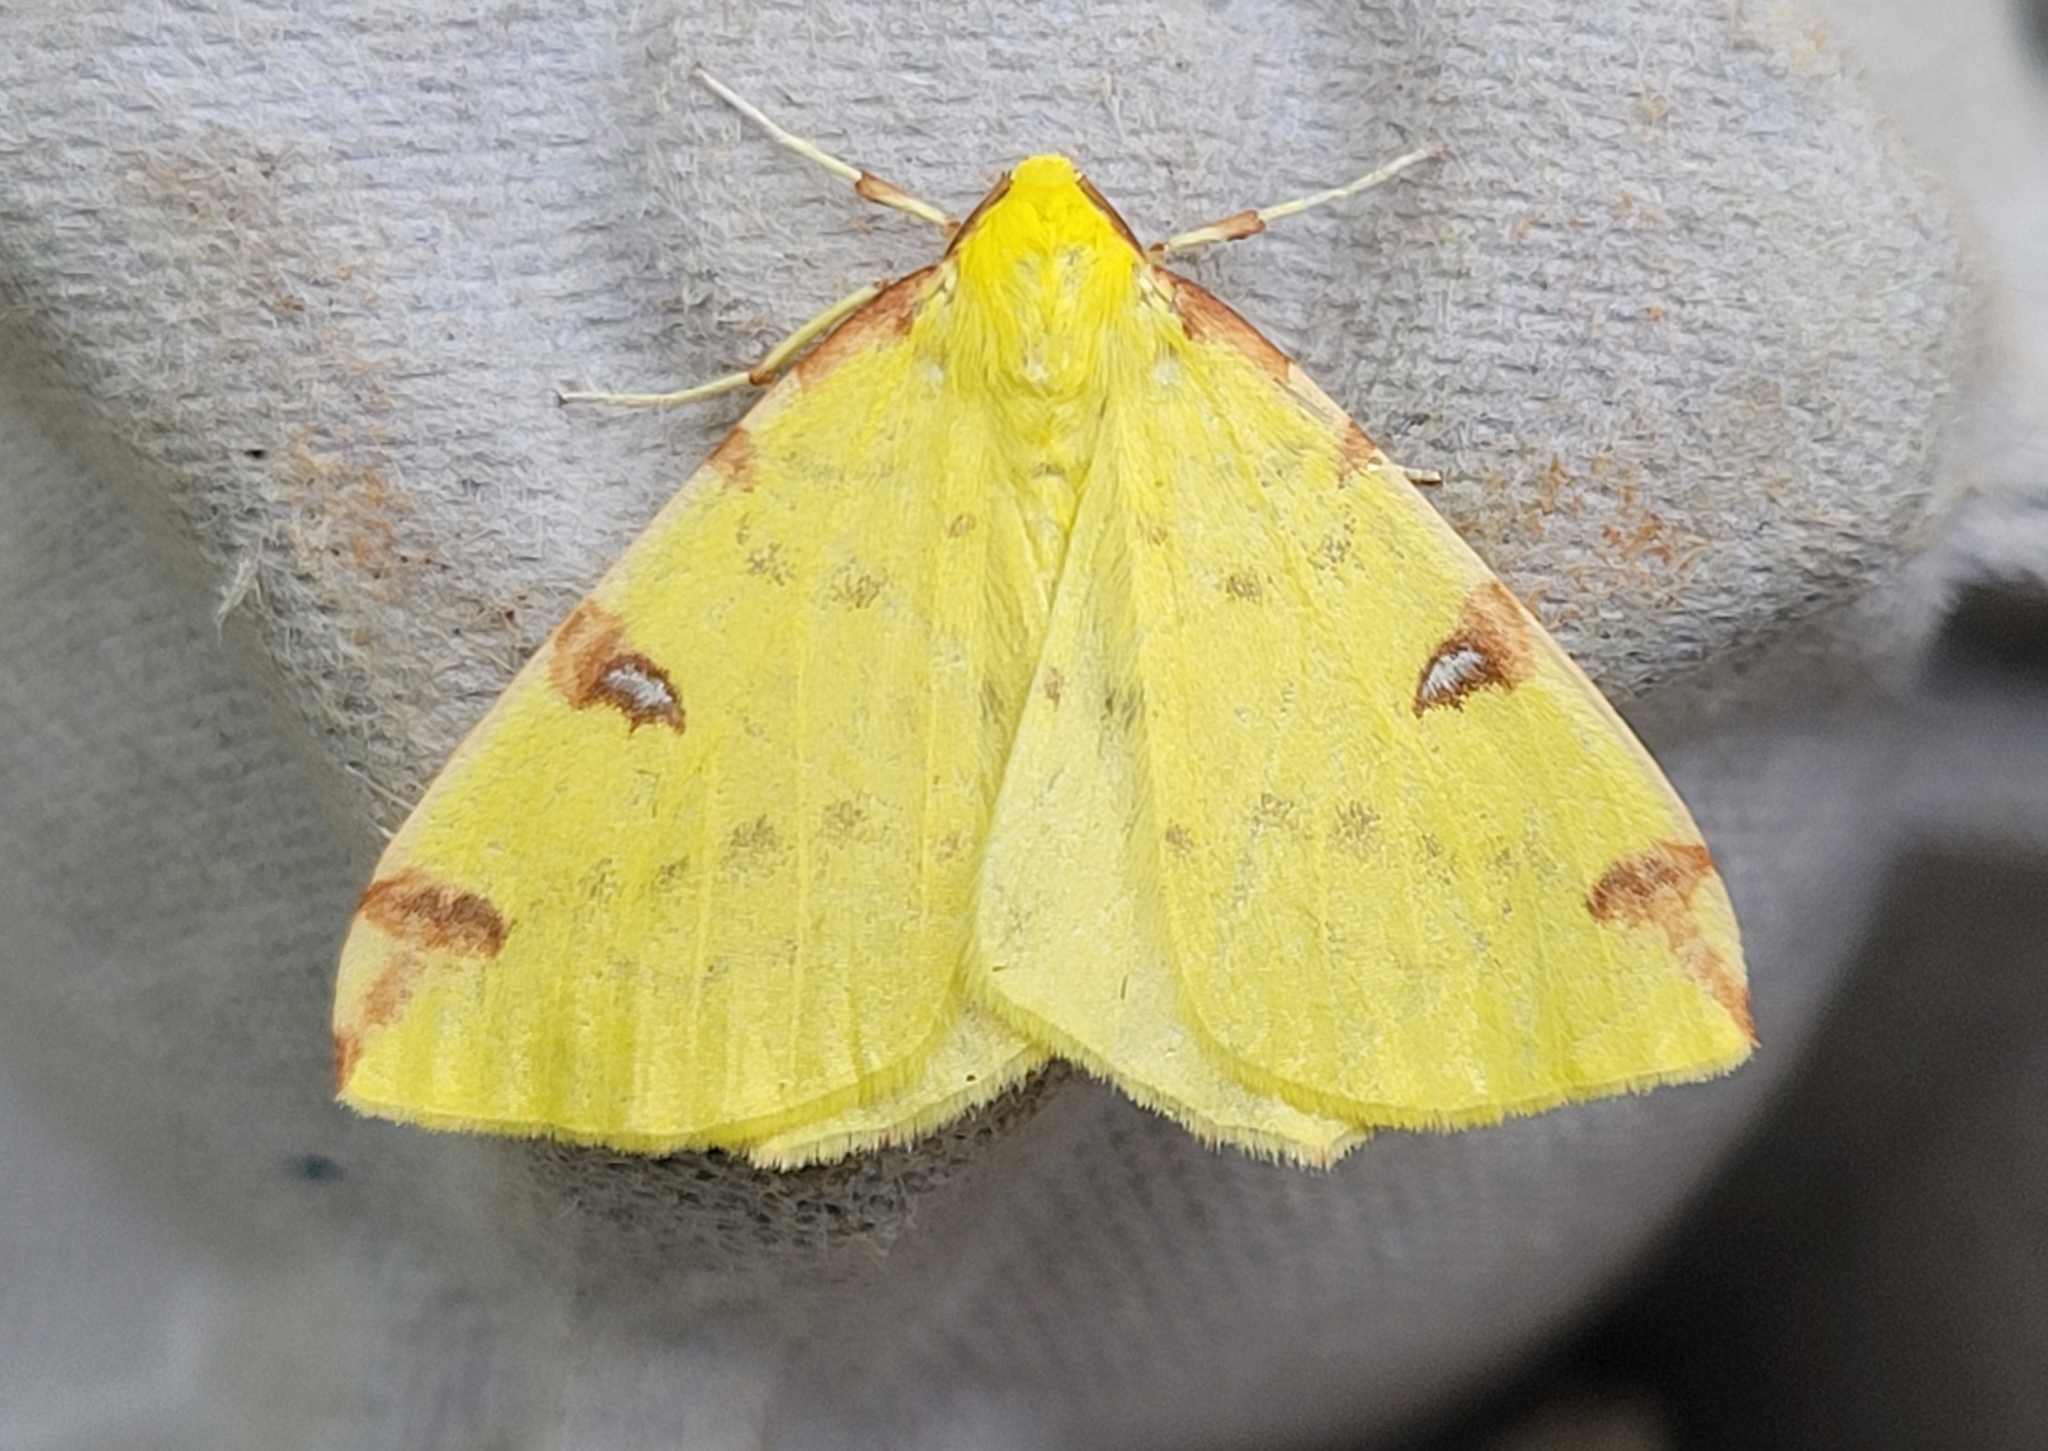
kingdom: Animalia
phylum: Arthropoda
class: Insecta
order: Lepidoptera
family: Geometridae
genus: Opisthograptis
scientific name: Opisthograptis luteolata
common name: Brimstone moth
